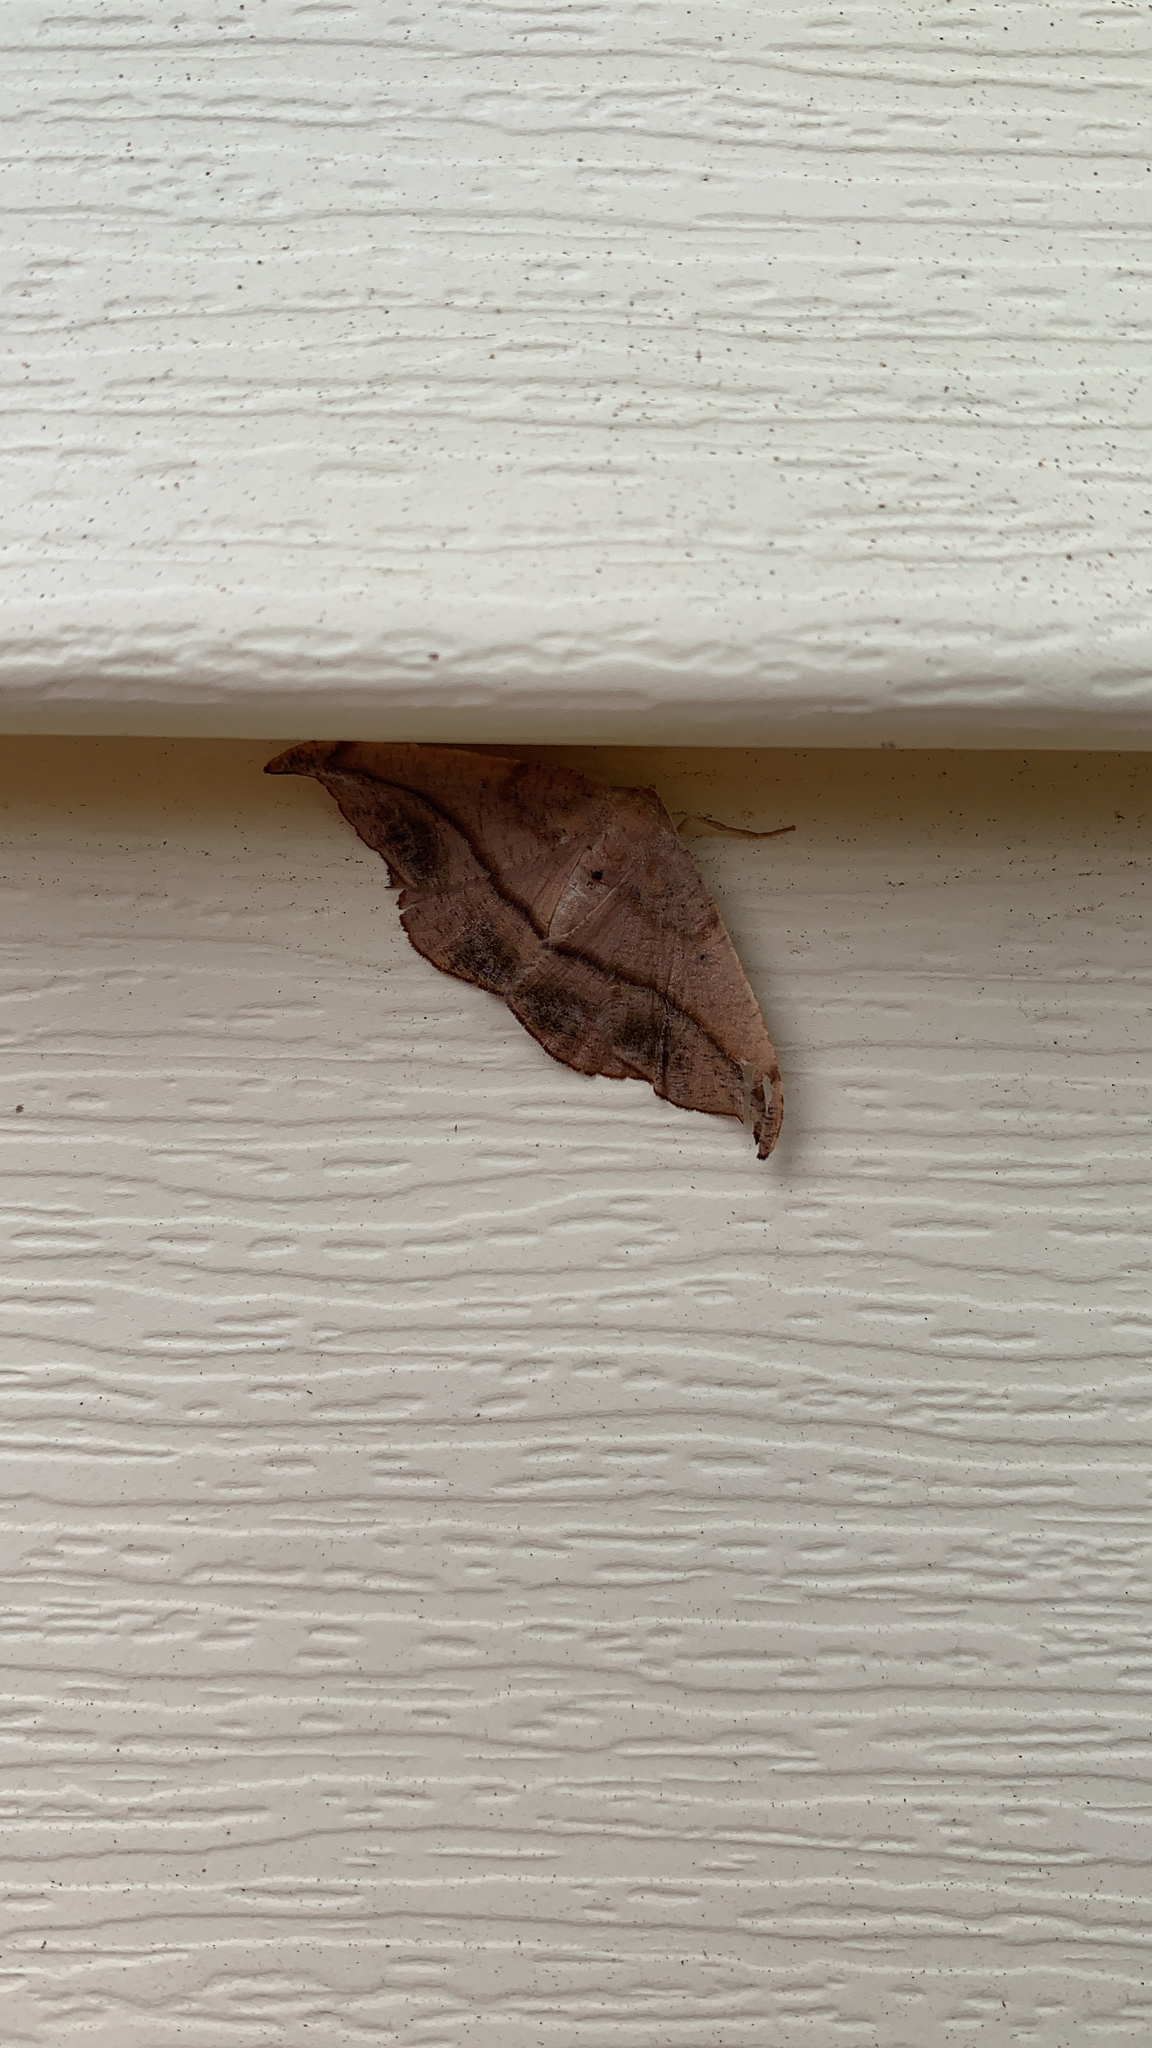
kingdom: Animalia
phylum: Arthropoda
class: Insecta
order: Lepidoptera
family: Geometridae
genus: Patalene
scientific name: Patalene olyzonaria
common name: Juniper geometer moth
